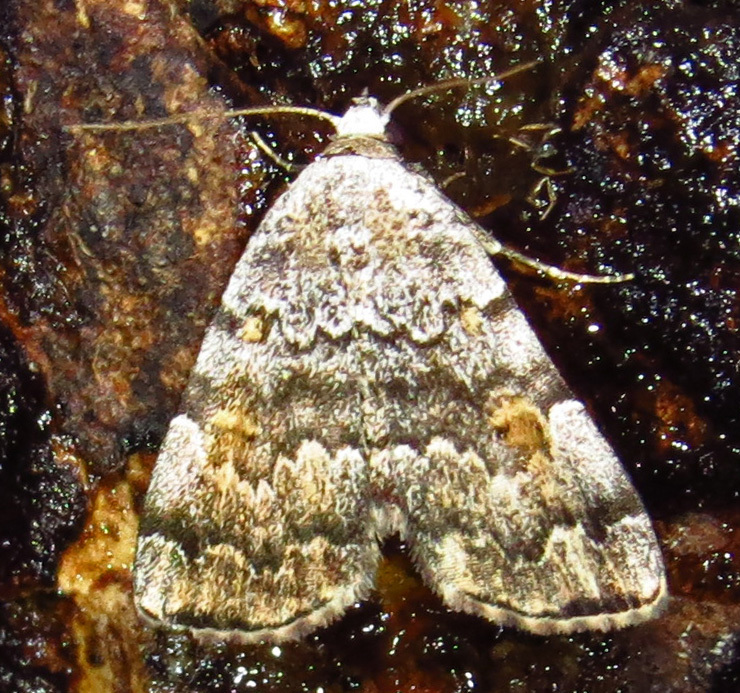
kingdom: Animalia
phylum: Arthropoda
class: Insecta
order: Lepidoptera
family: Erebidae
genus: Idia
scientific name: Idia americalis
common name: American idia moth
